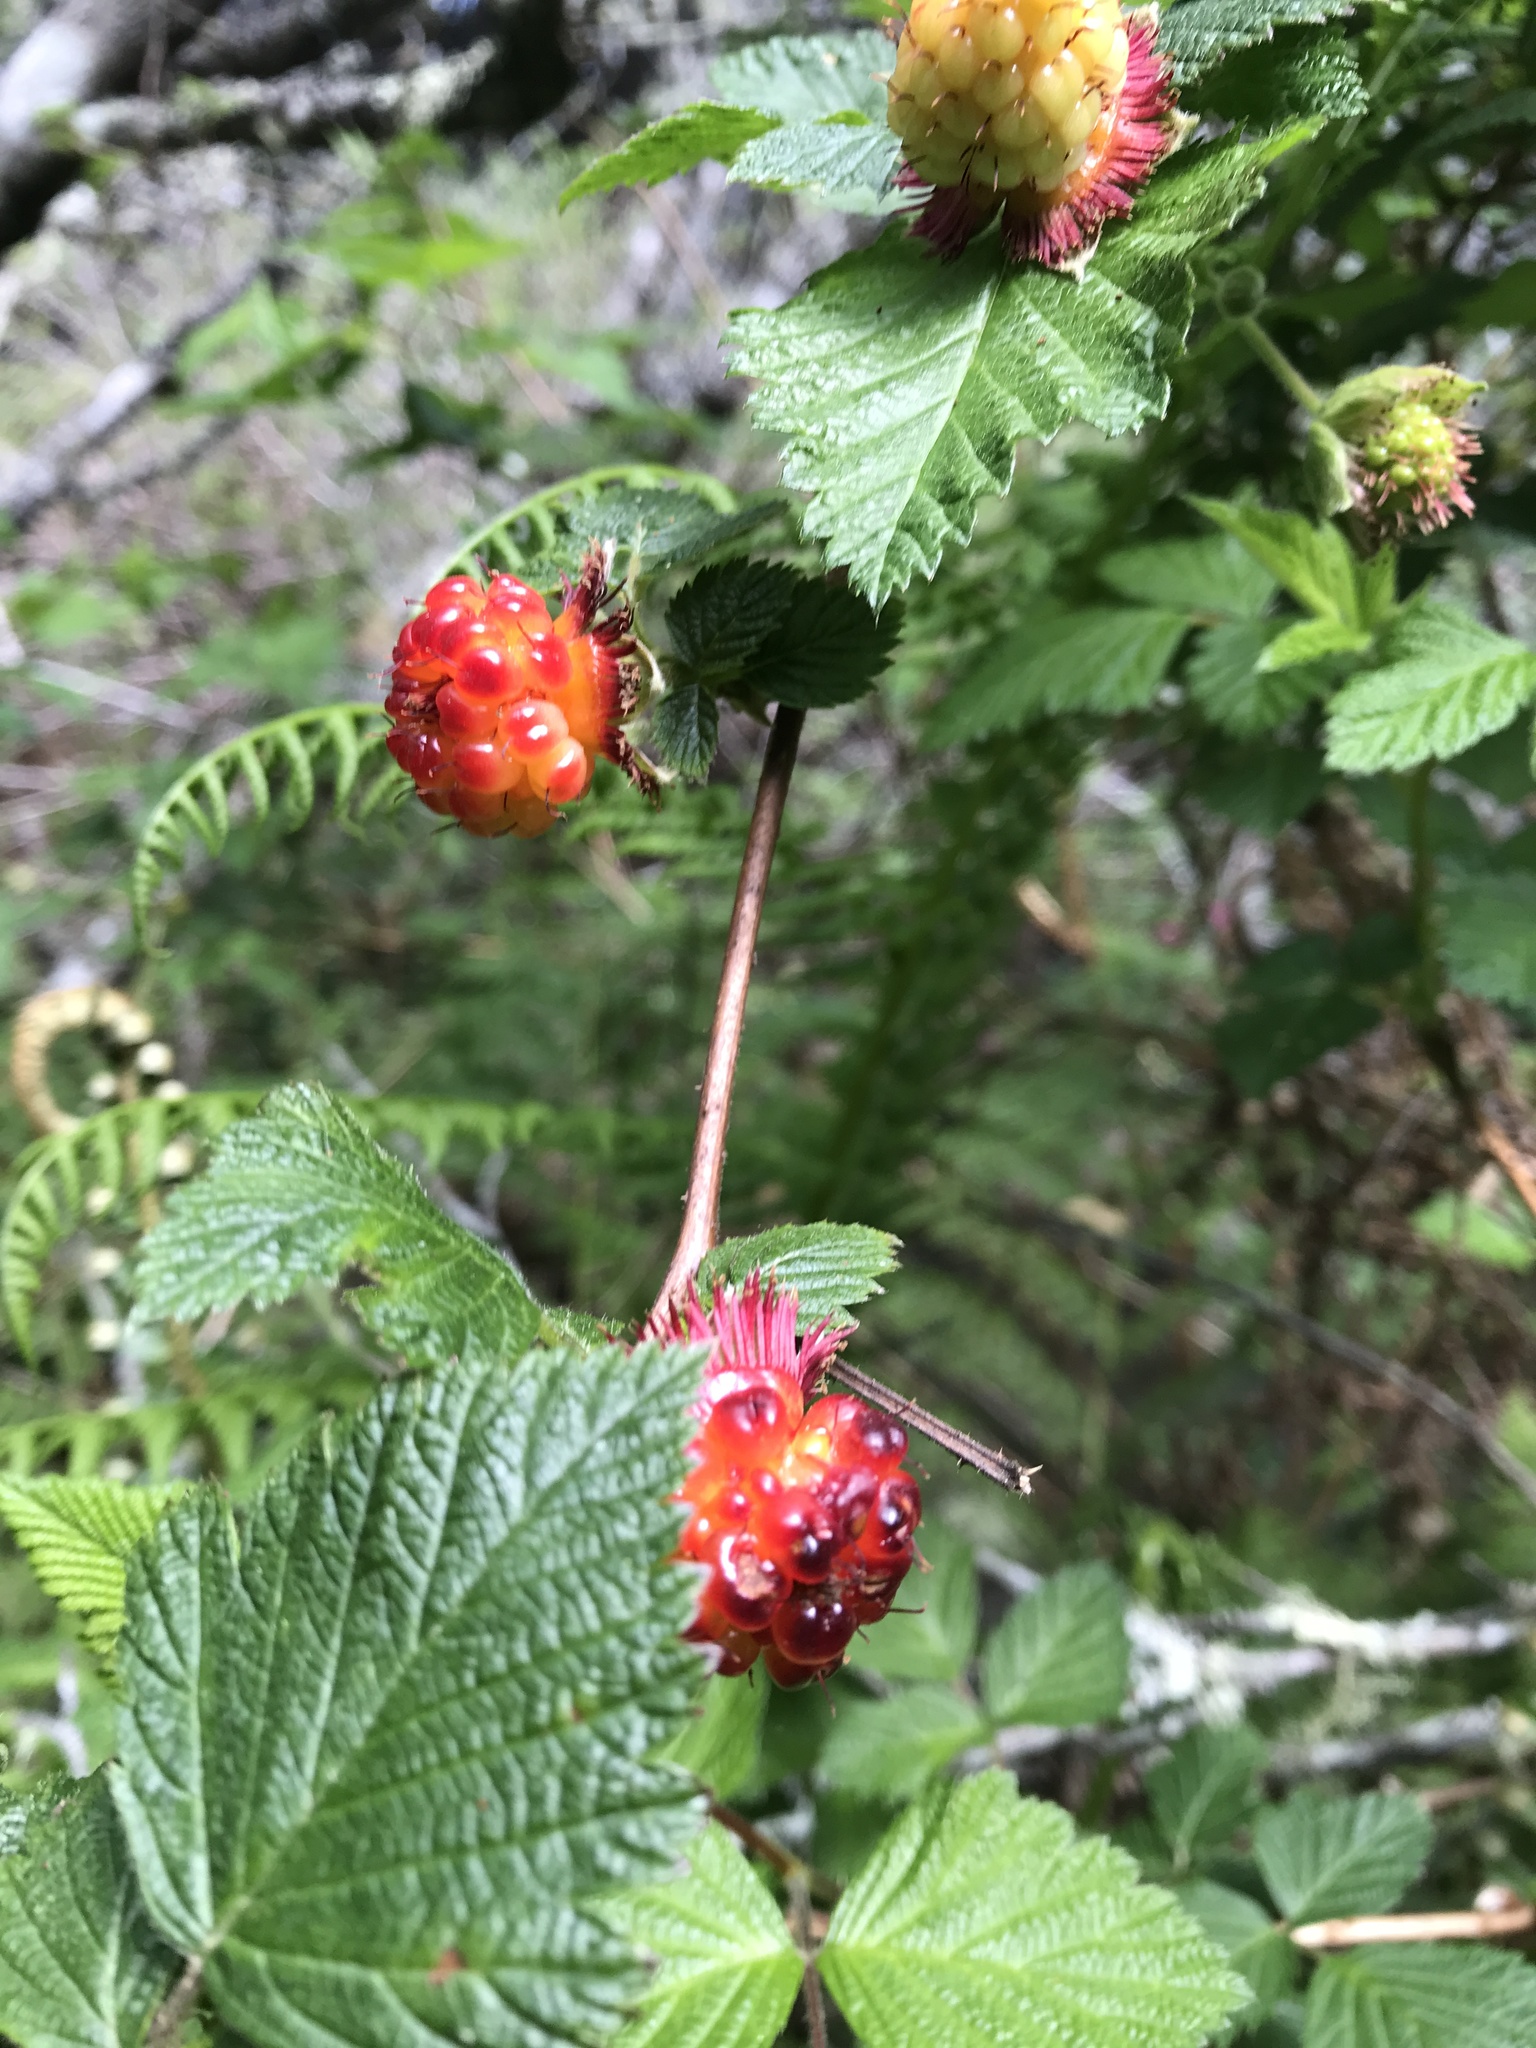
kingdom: Plantae
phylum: Tracheophyta
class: Magnoliopsida
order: Rosales
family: Rosaceae
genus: Rubus
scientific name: Rubus spectabilis
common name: Salmonberry
